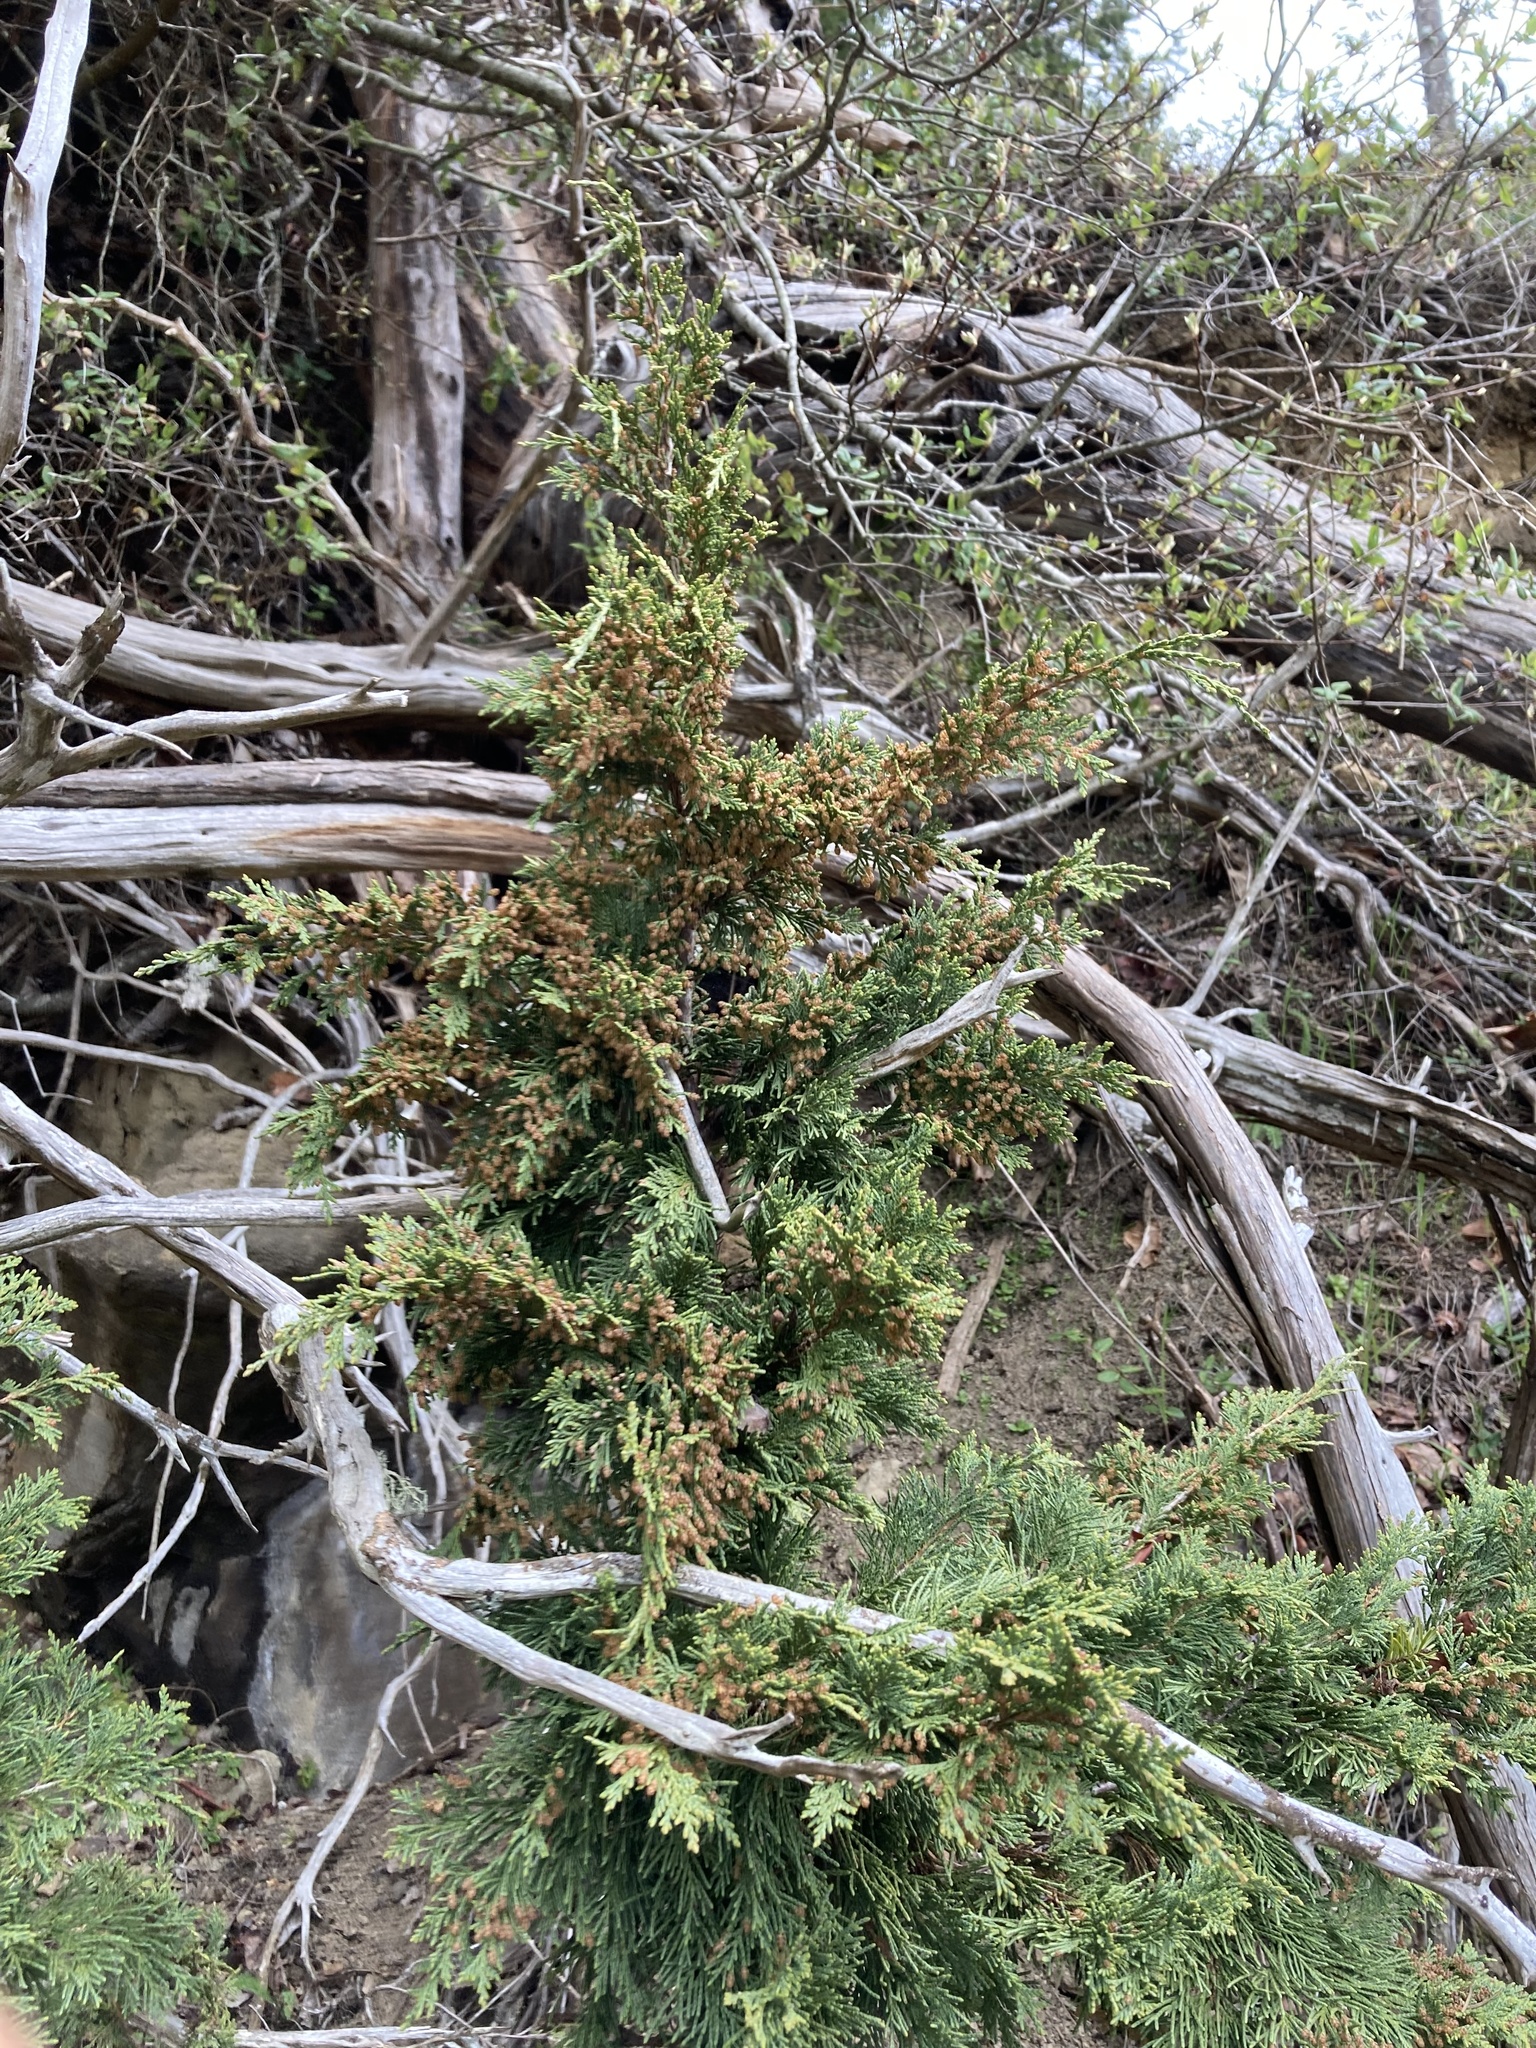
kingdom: Plantae
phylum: Tracheophyta
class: Pinopsida
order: Pinales
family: Cupressaceae
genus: Juniperus
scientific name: Juniperus scopulorum
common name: Rocky mountain juniper
